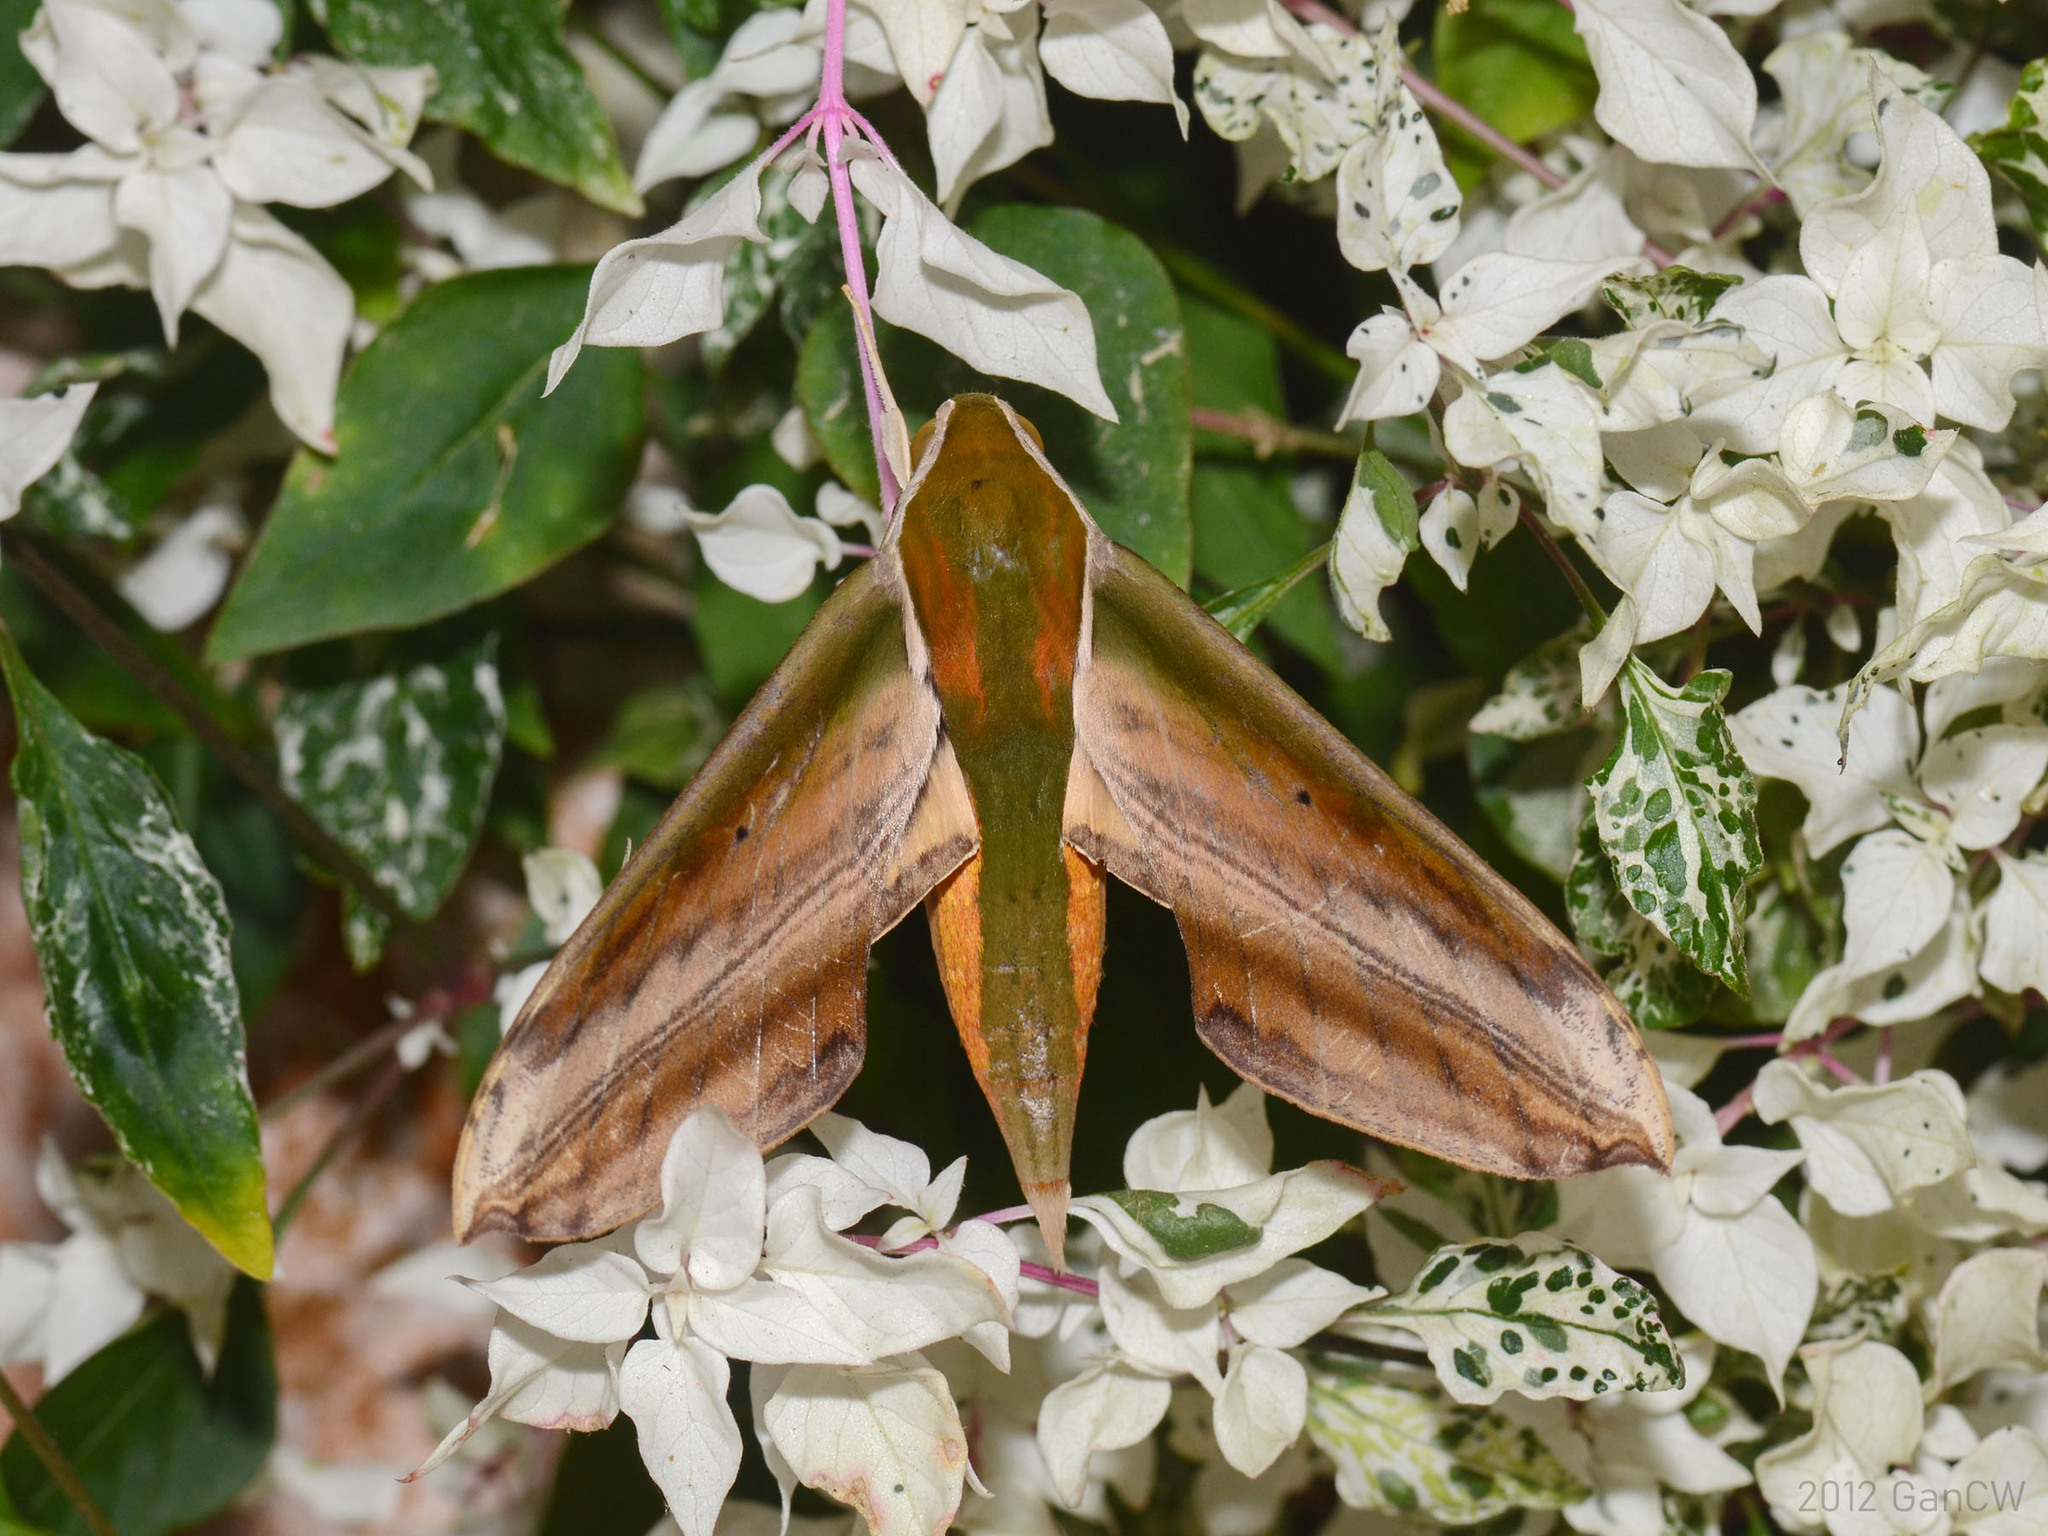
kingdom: Animalia
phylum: Arthropoda
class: Insecta
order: Lepidoptera
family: Sphingidae
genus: Theretra
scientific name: Theretra nessus
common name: Yam hawk moth
